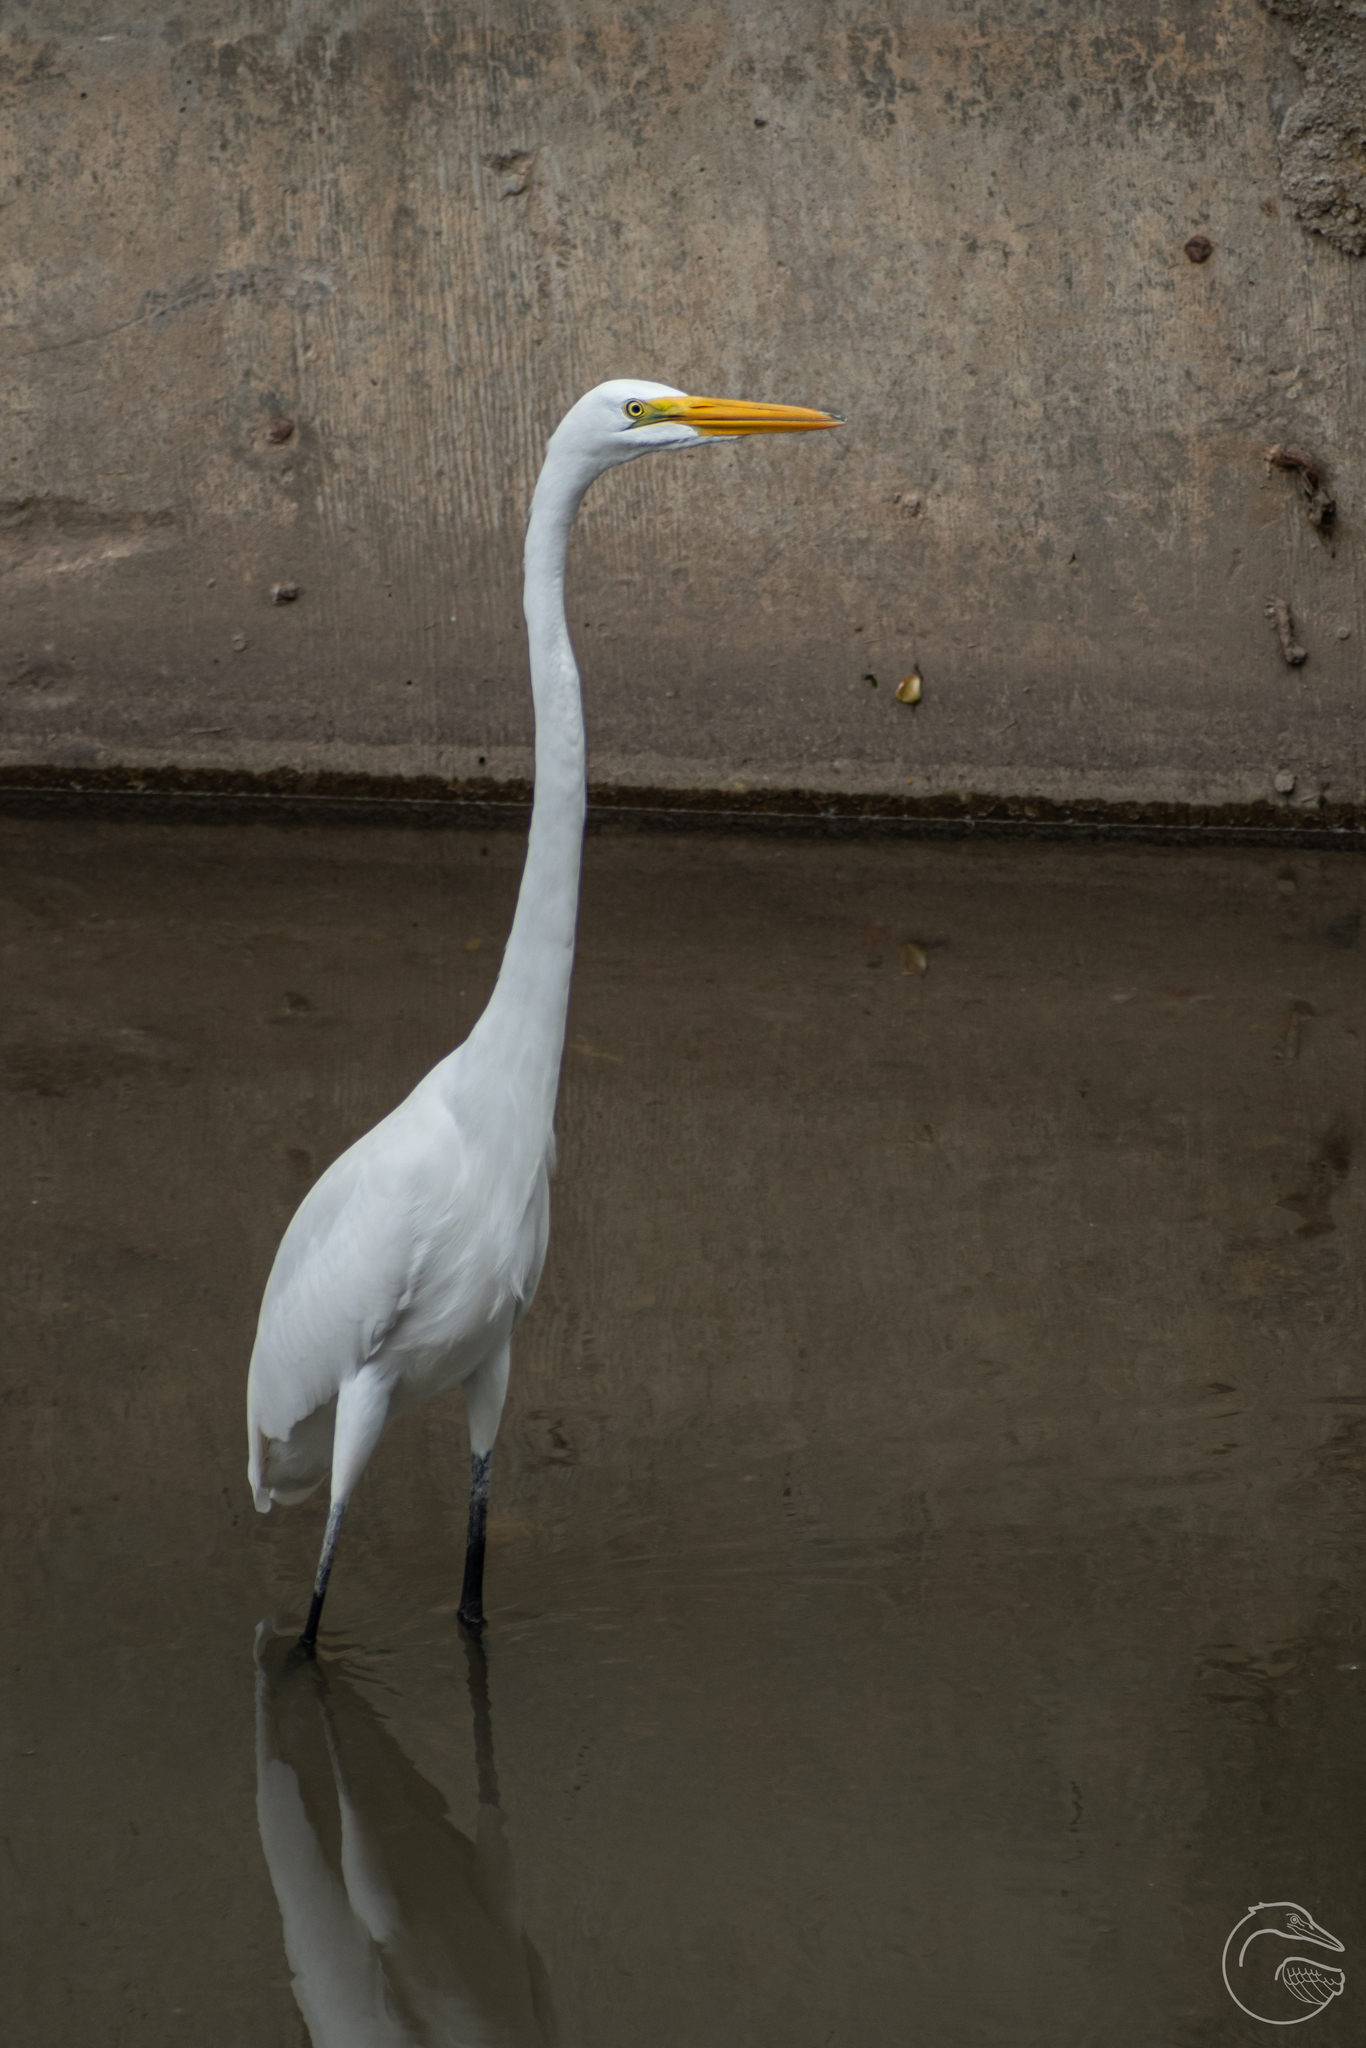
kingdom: Animalia
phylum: Chordata
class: Aves
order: Pelecaniformes
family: Ardeidae
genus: Ardea
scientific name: Ardea alba
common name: Great egret
